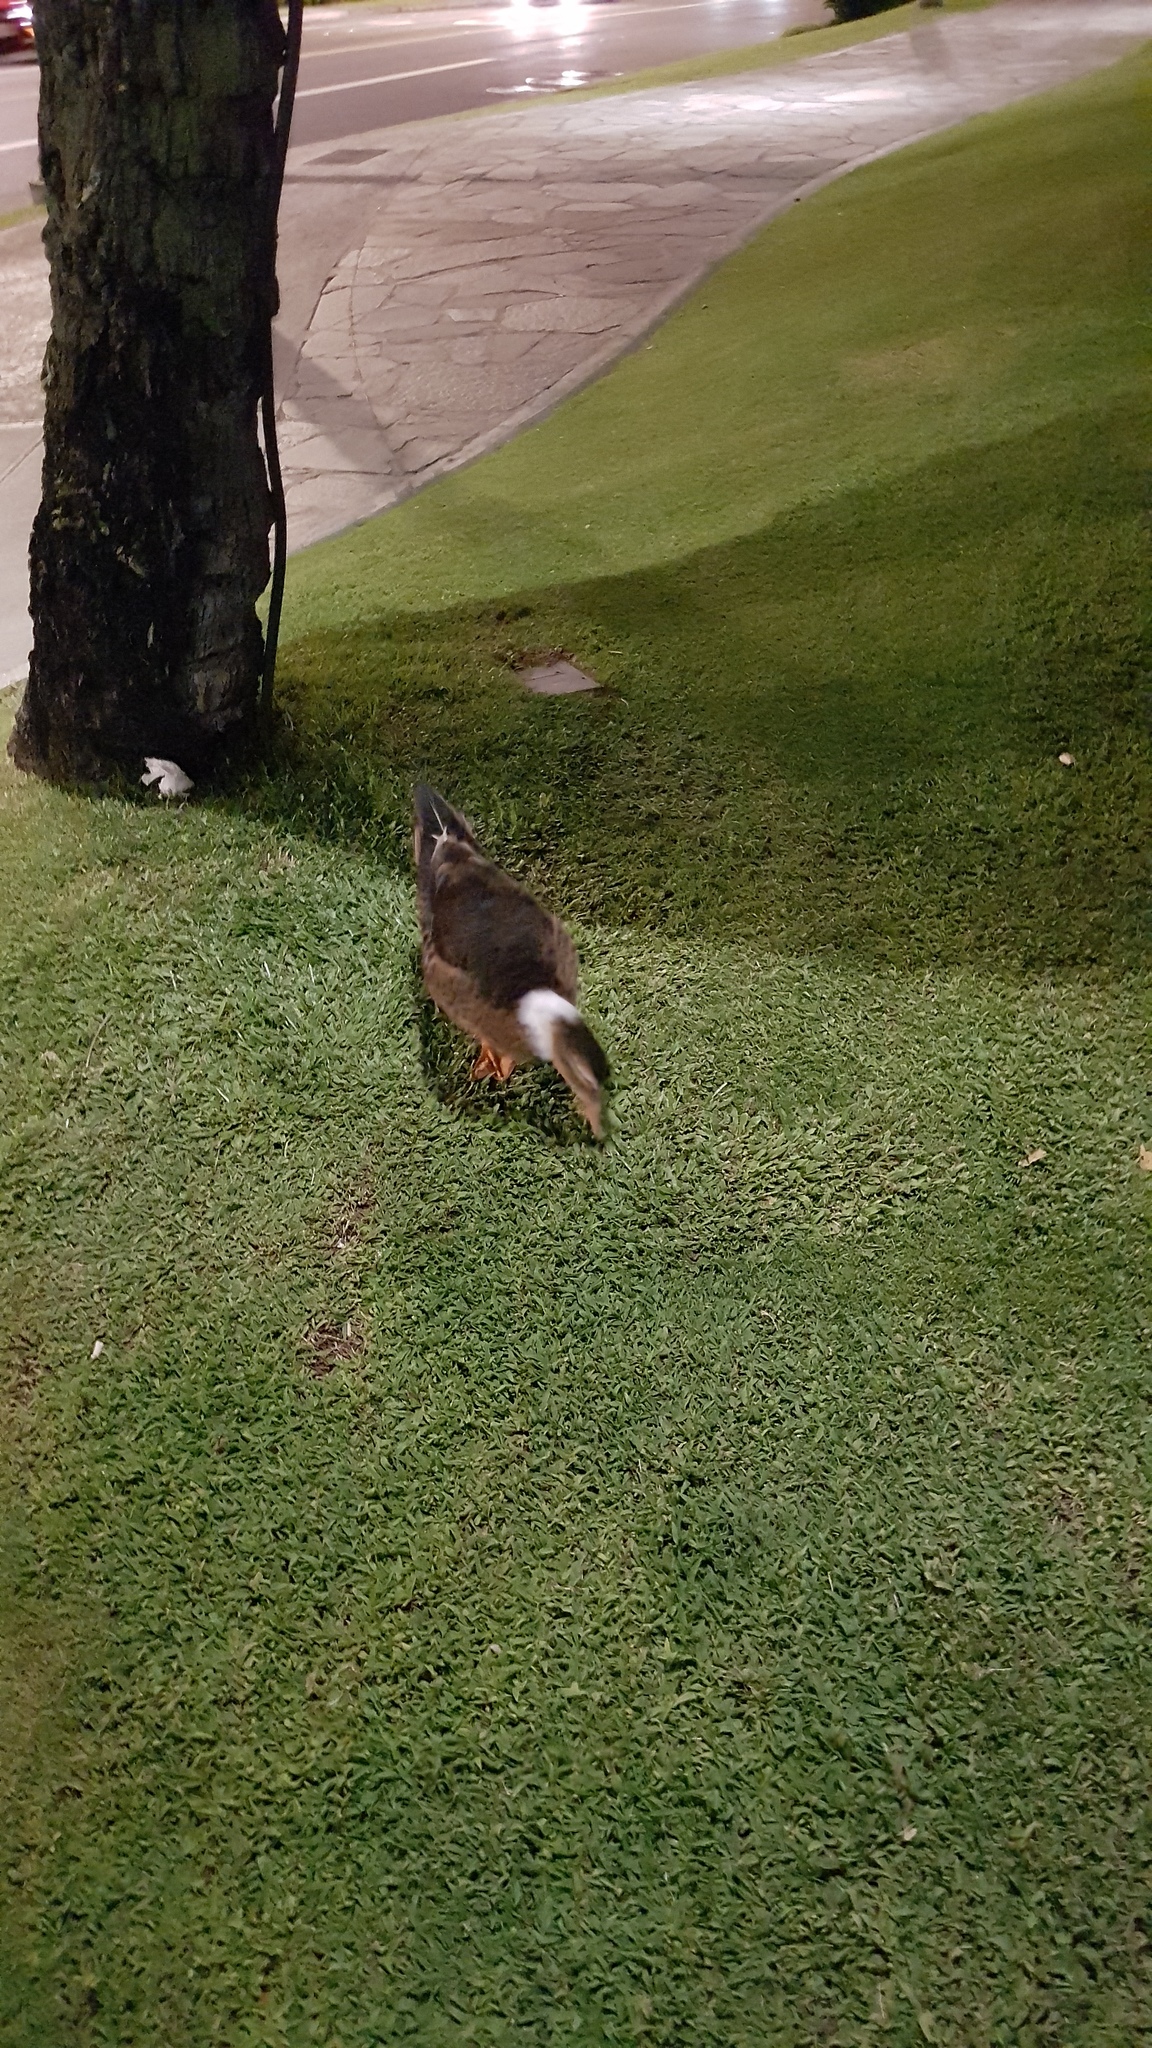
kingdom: Animalia
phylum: Chordata
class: Aves
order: Anseriformes
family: Anatidae
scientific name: Anatidae
